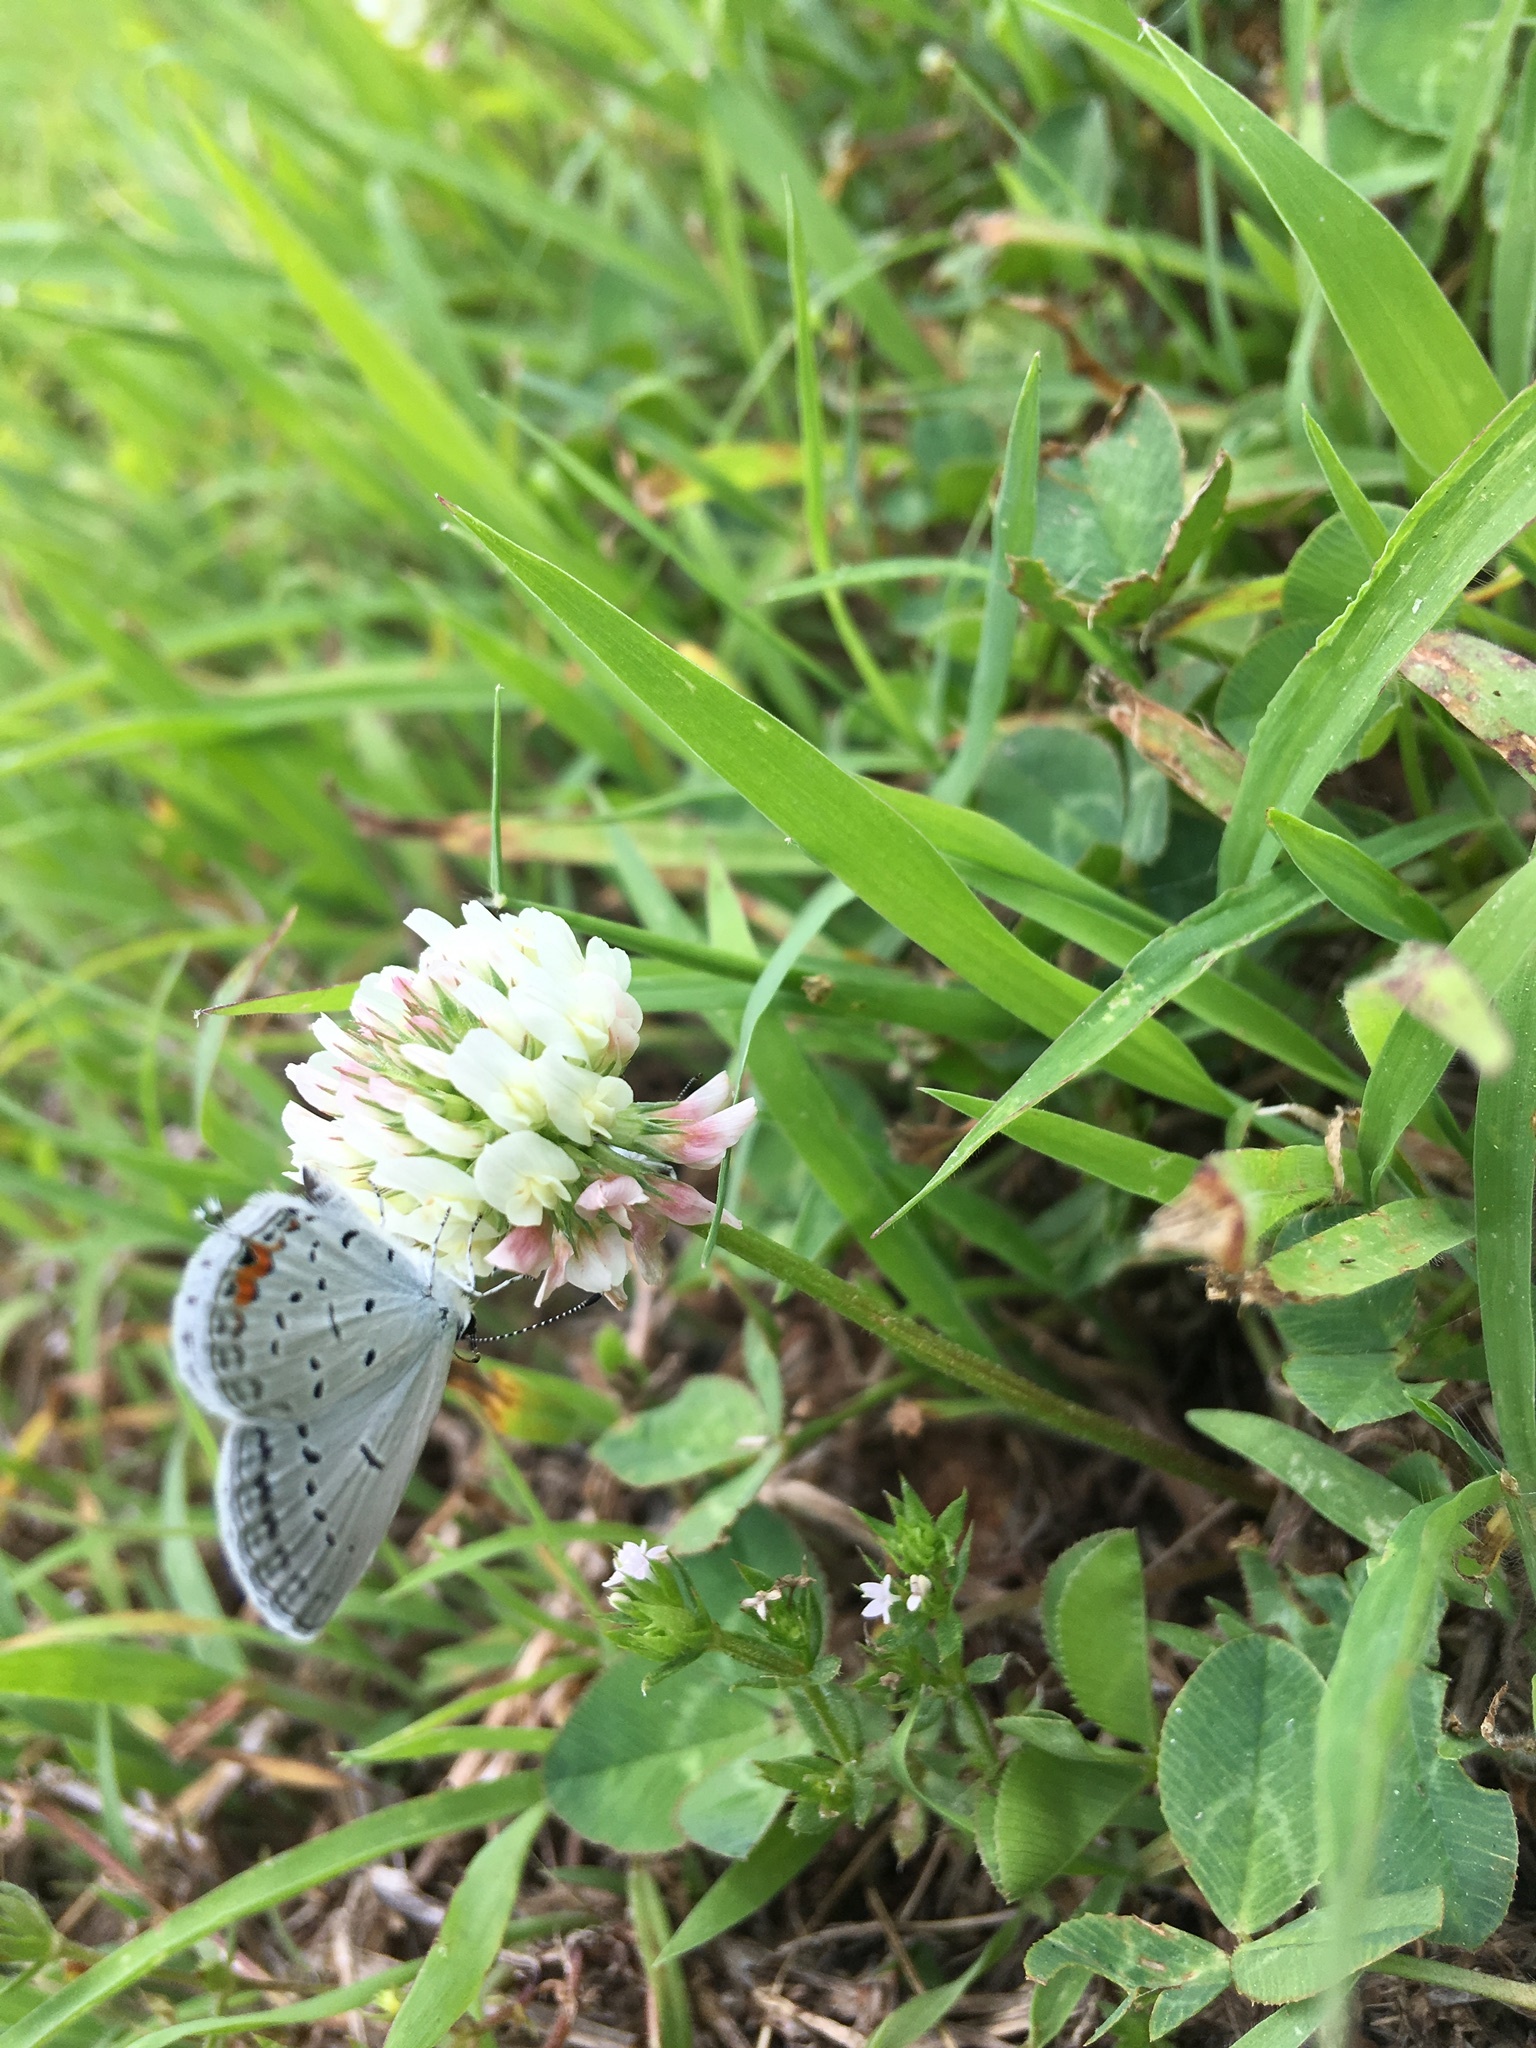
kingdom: Animalia
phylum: Arthropoda
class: Insecta
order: Lepidoptera
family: Lycaenidae
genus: Elkalyce
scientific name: Elkalyce comyntas
